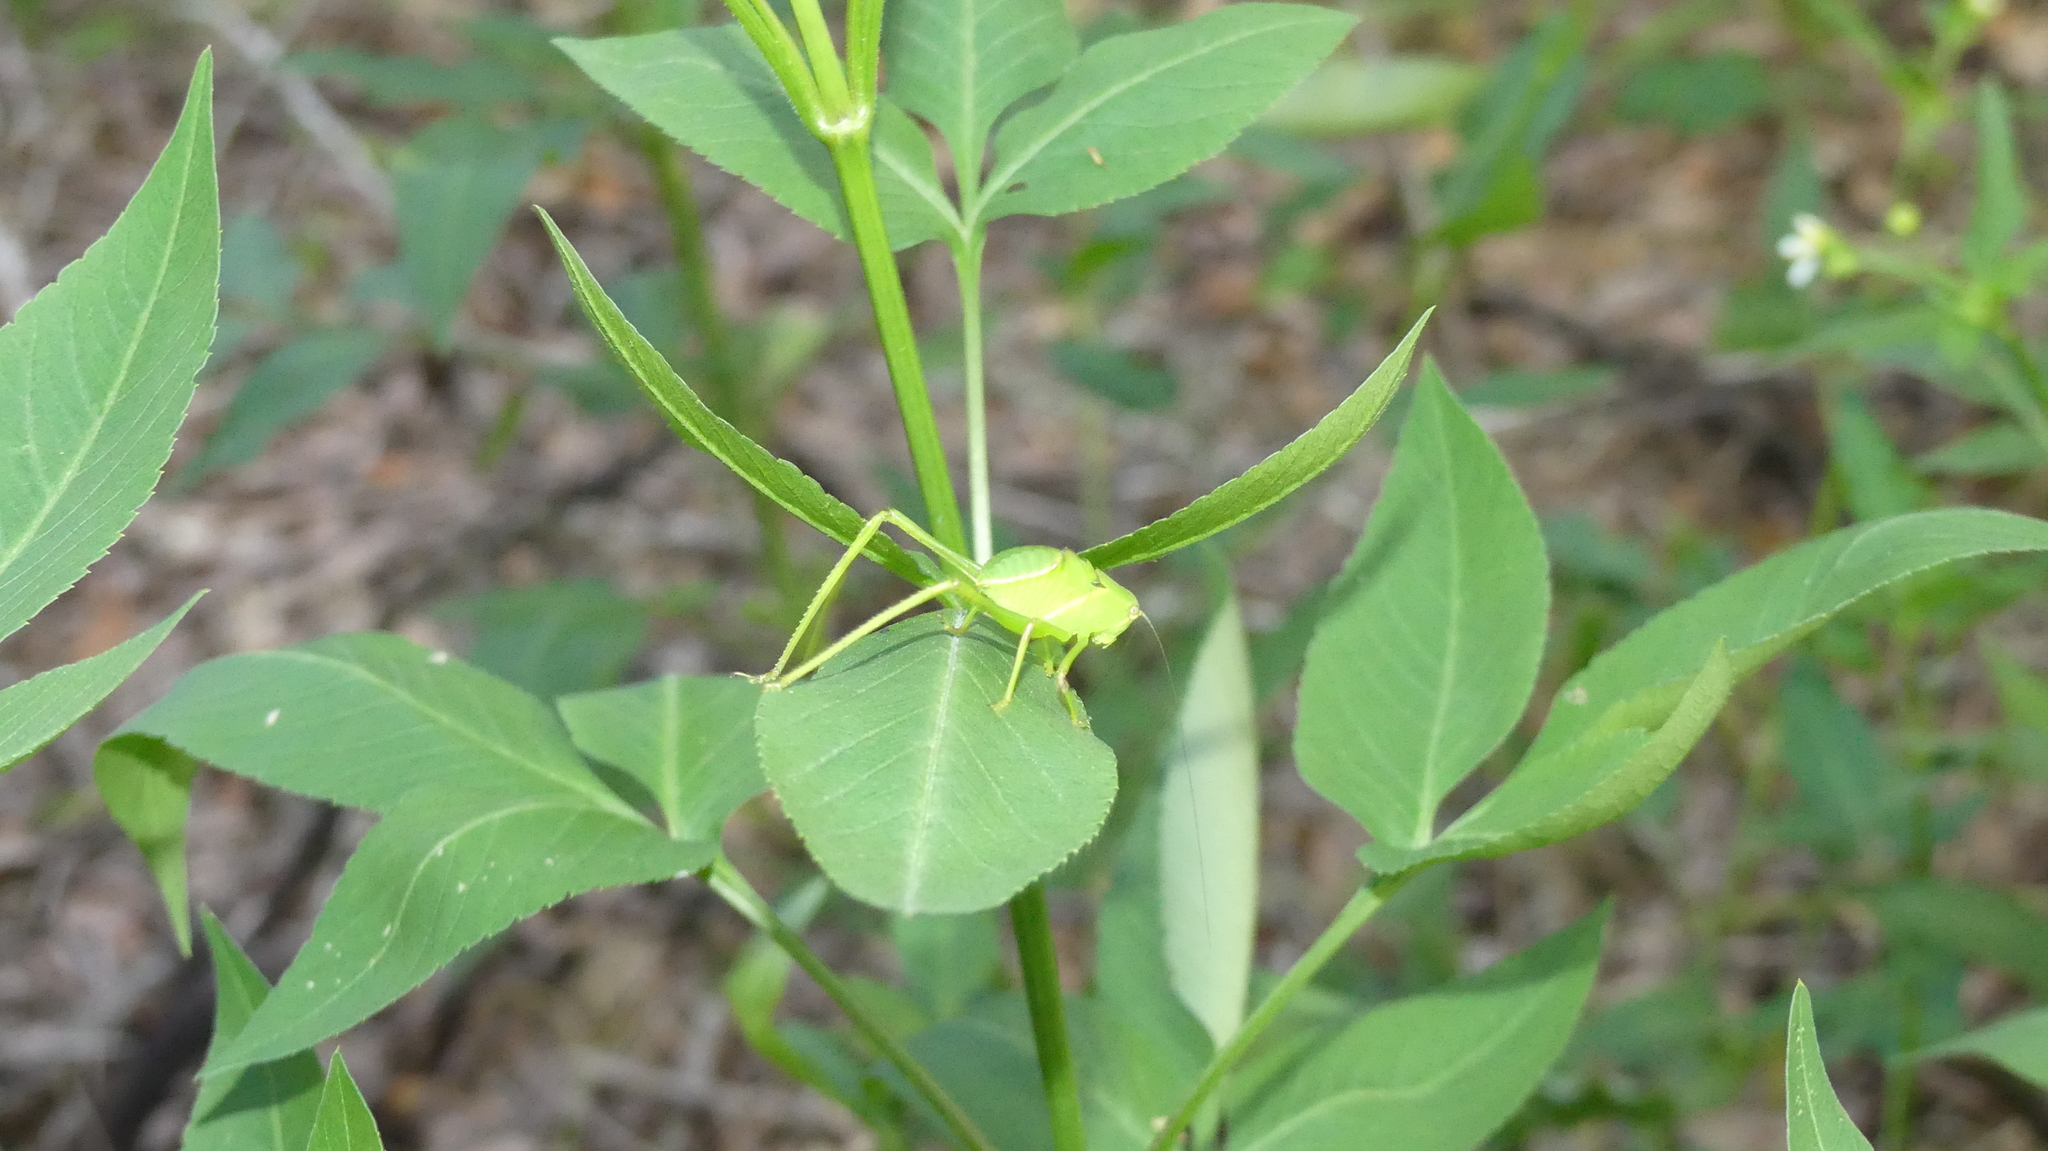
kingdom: Animalia
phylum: Arthropoda
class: Insecta
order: Orthoptera
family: Tettigoniidae
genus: Stilpnochlora
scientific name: Stilpnochlora couloniana
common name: Giant katydid
